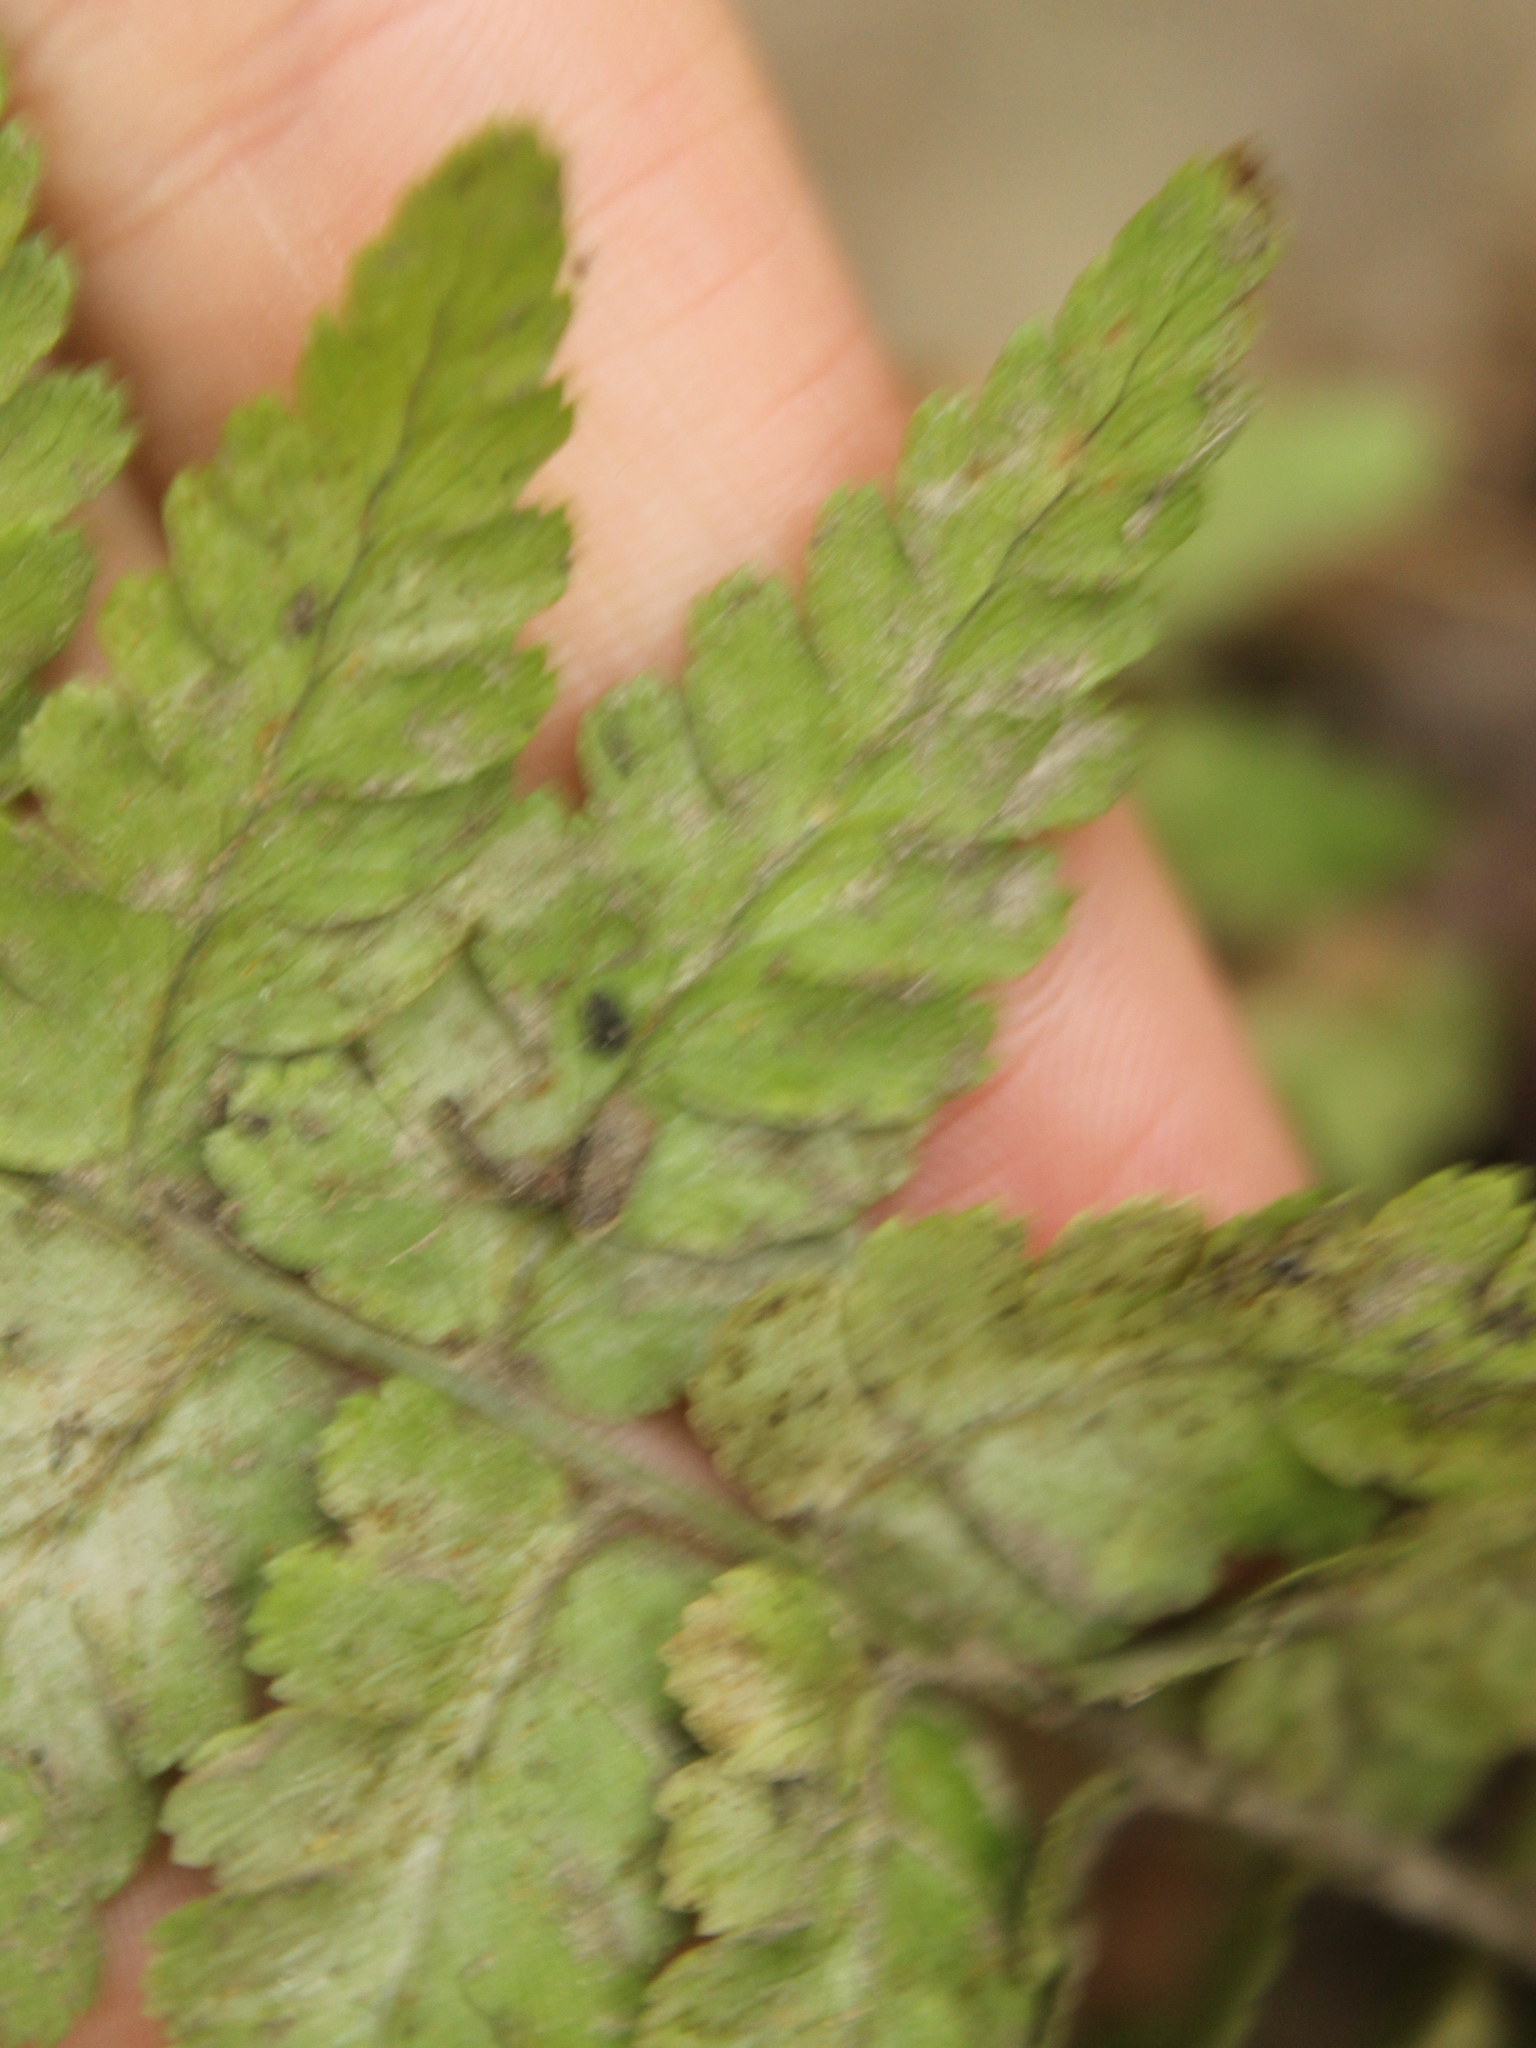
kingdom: Plantae
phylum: Tracheophyta
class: Polypodiopsida
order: Polypodiales
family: Dryopteridaceae
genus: Dryopteris
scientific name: Dryopteris filix-mas
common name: Male fern
